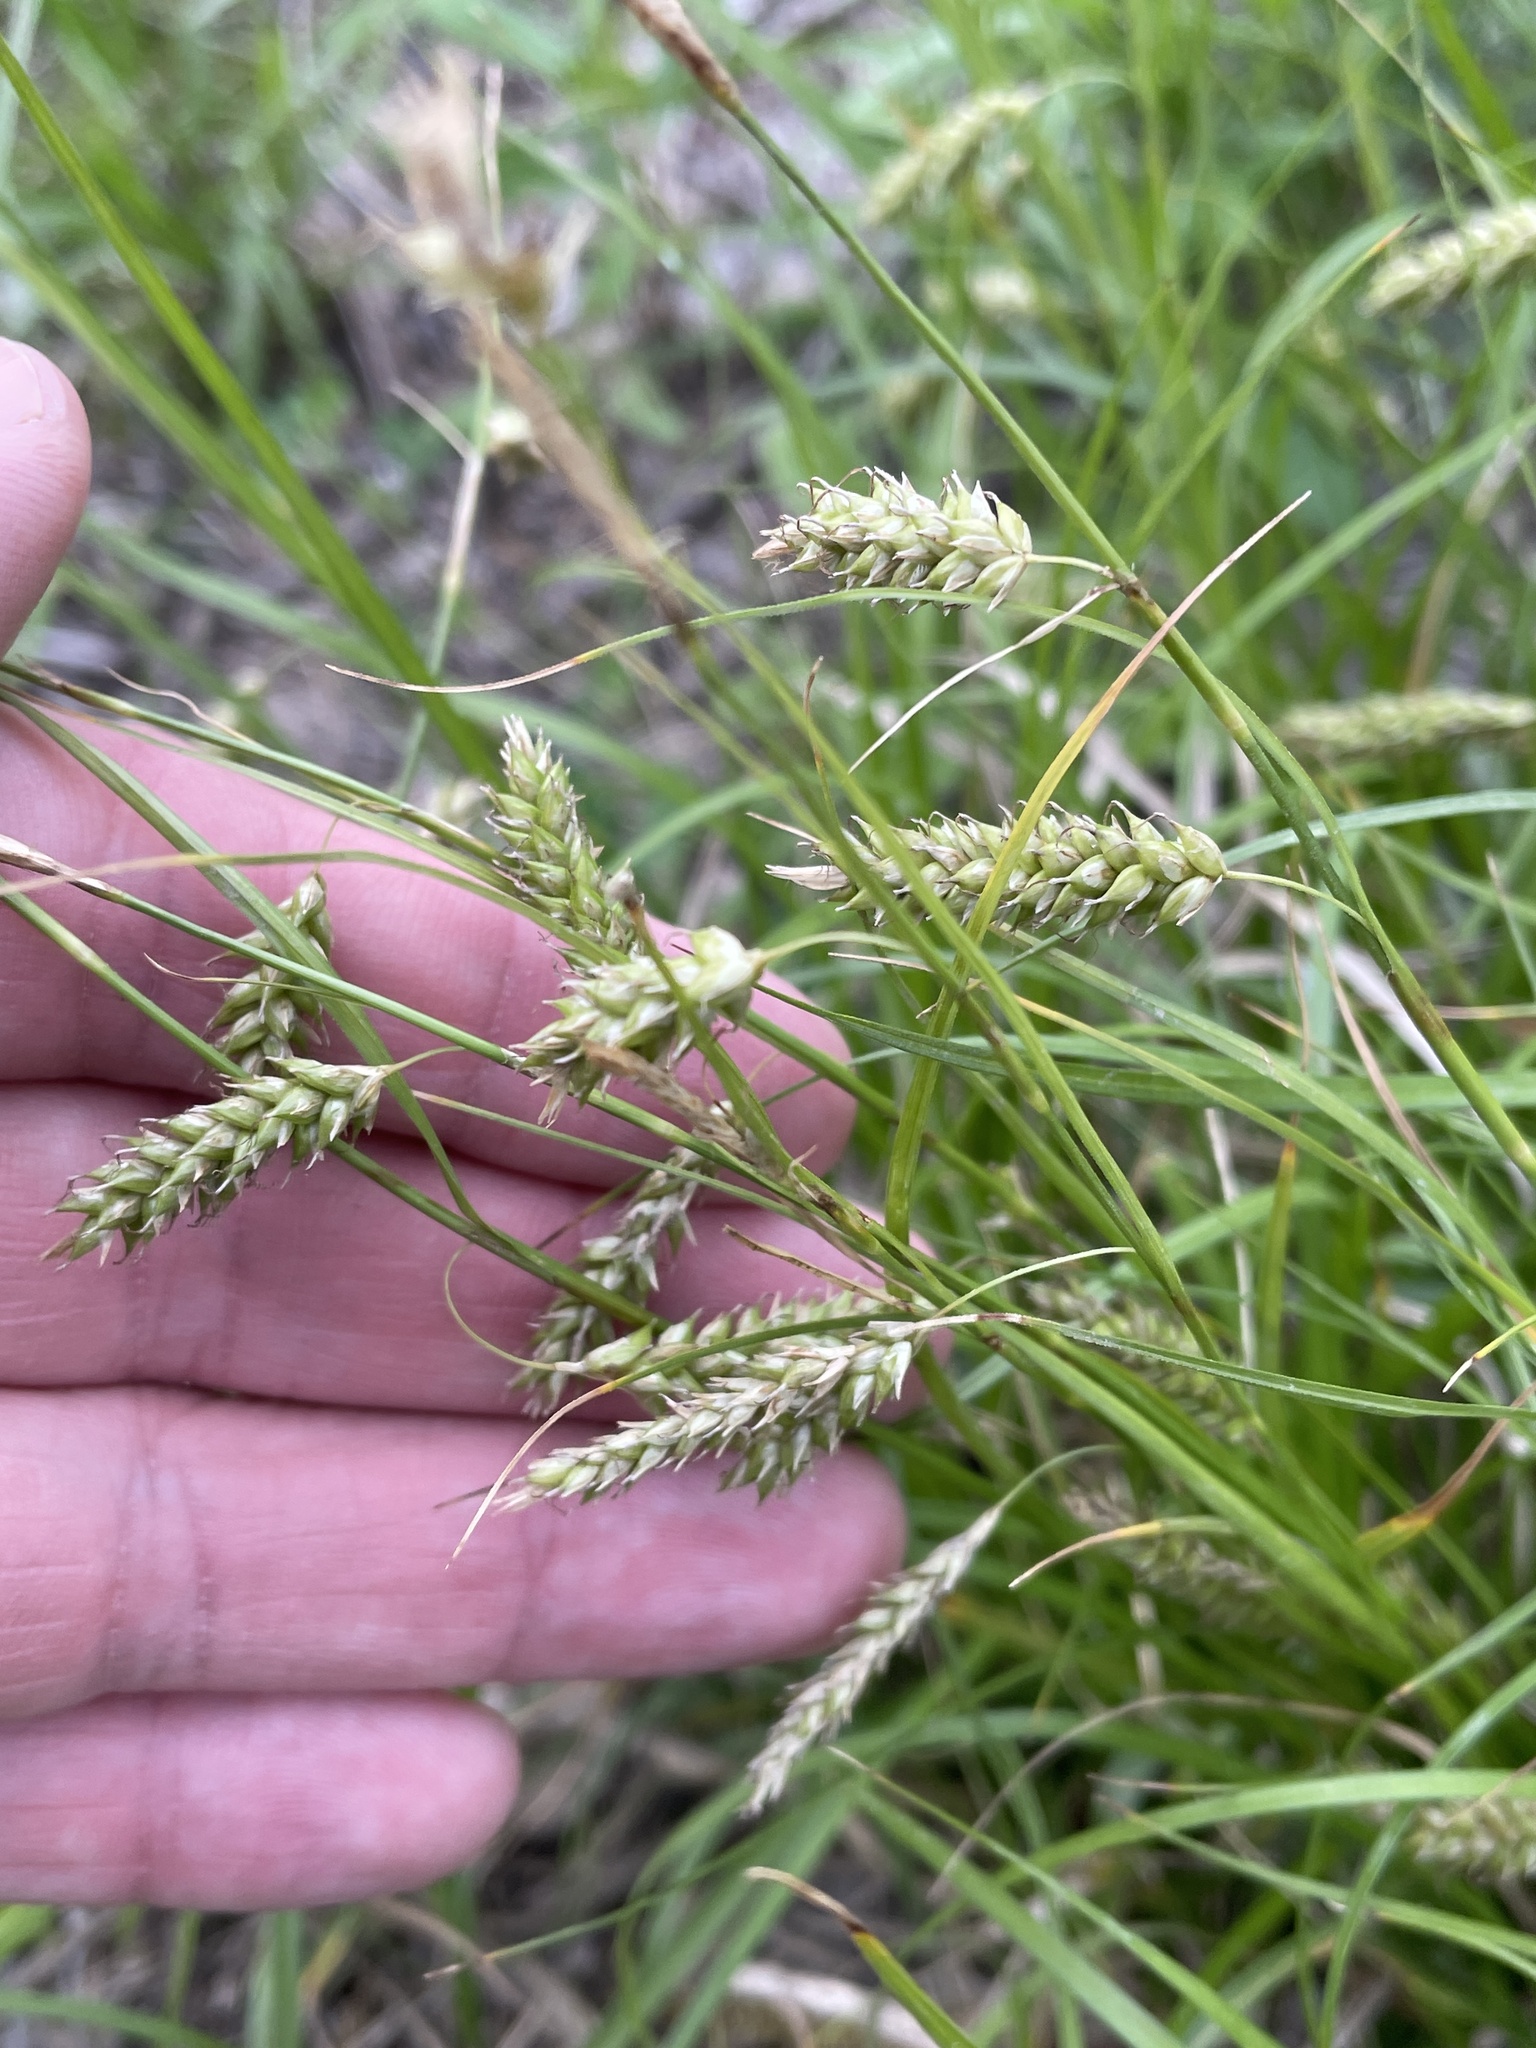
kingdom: Plantae
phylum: Tracheophyta
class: Liliopsida
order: Poales
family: Cyperaceae
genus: Carex
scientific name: Carex cherokeensis
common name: Cherokee sedge
